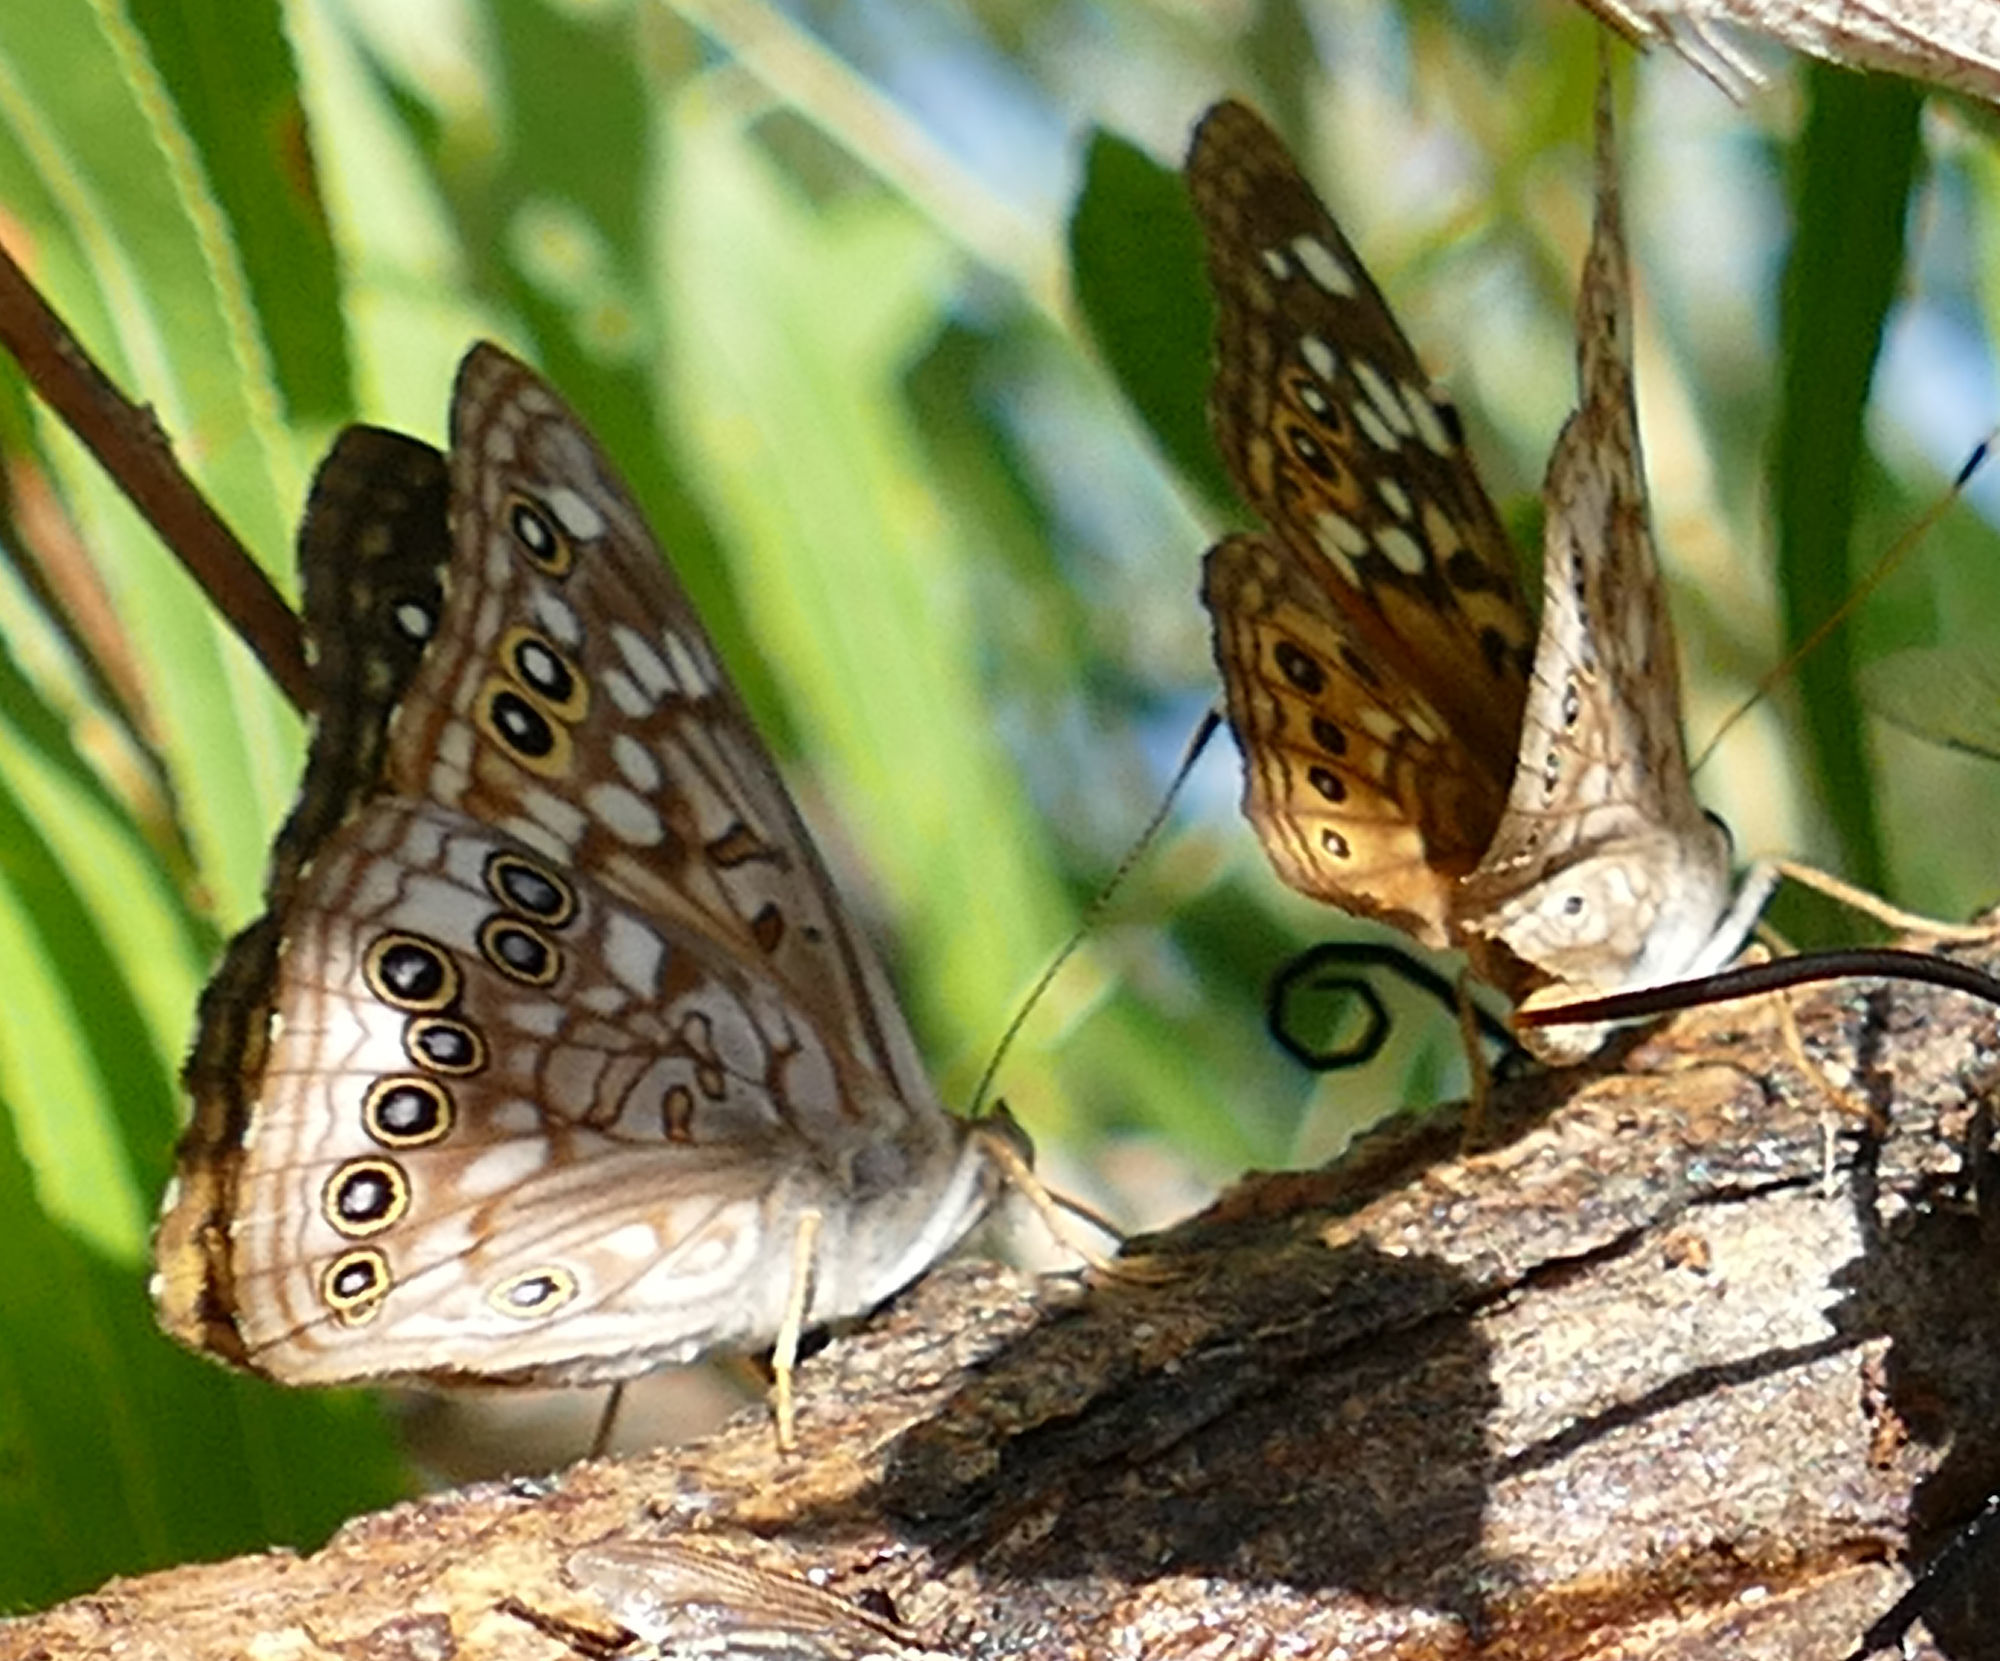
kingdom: Animalia
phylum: Arthropoda
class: Insecta
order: Lepidoptera
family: Nymphalidae
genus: Asterocampa
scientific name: Asterocampa celtis
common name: Hackberry emperor
